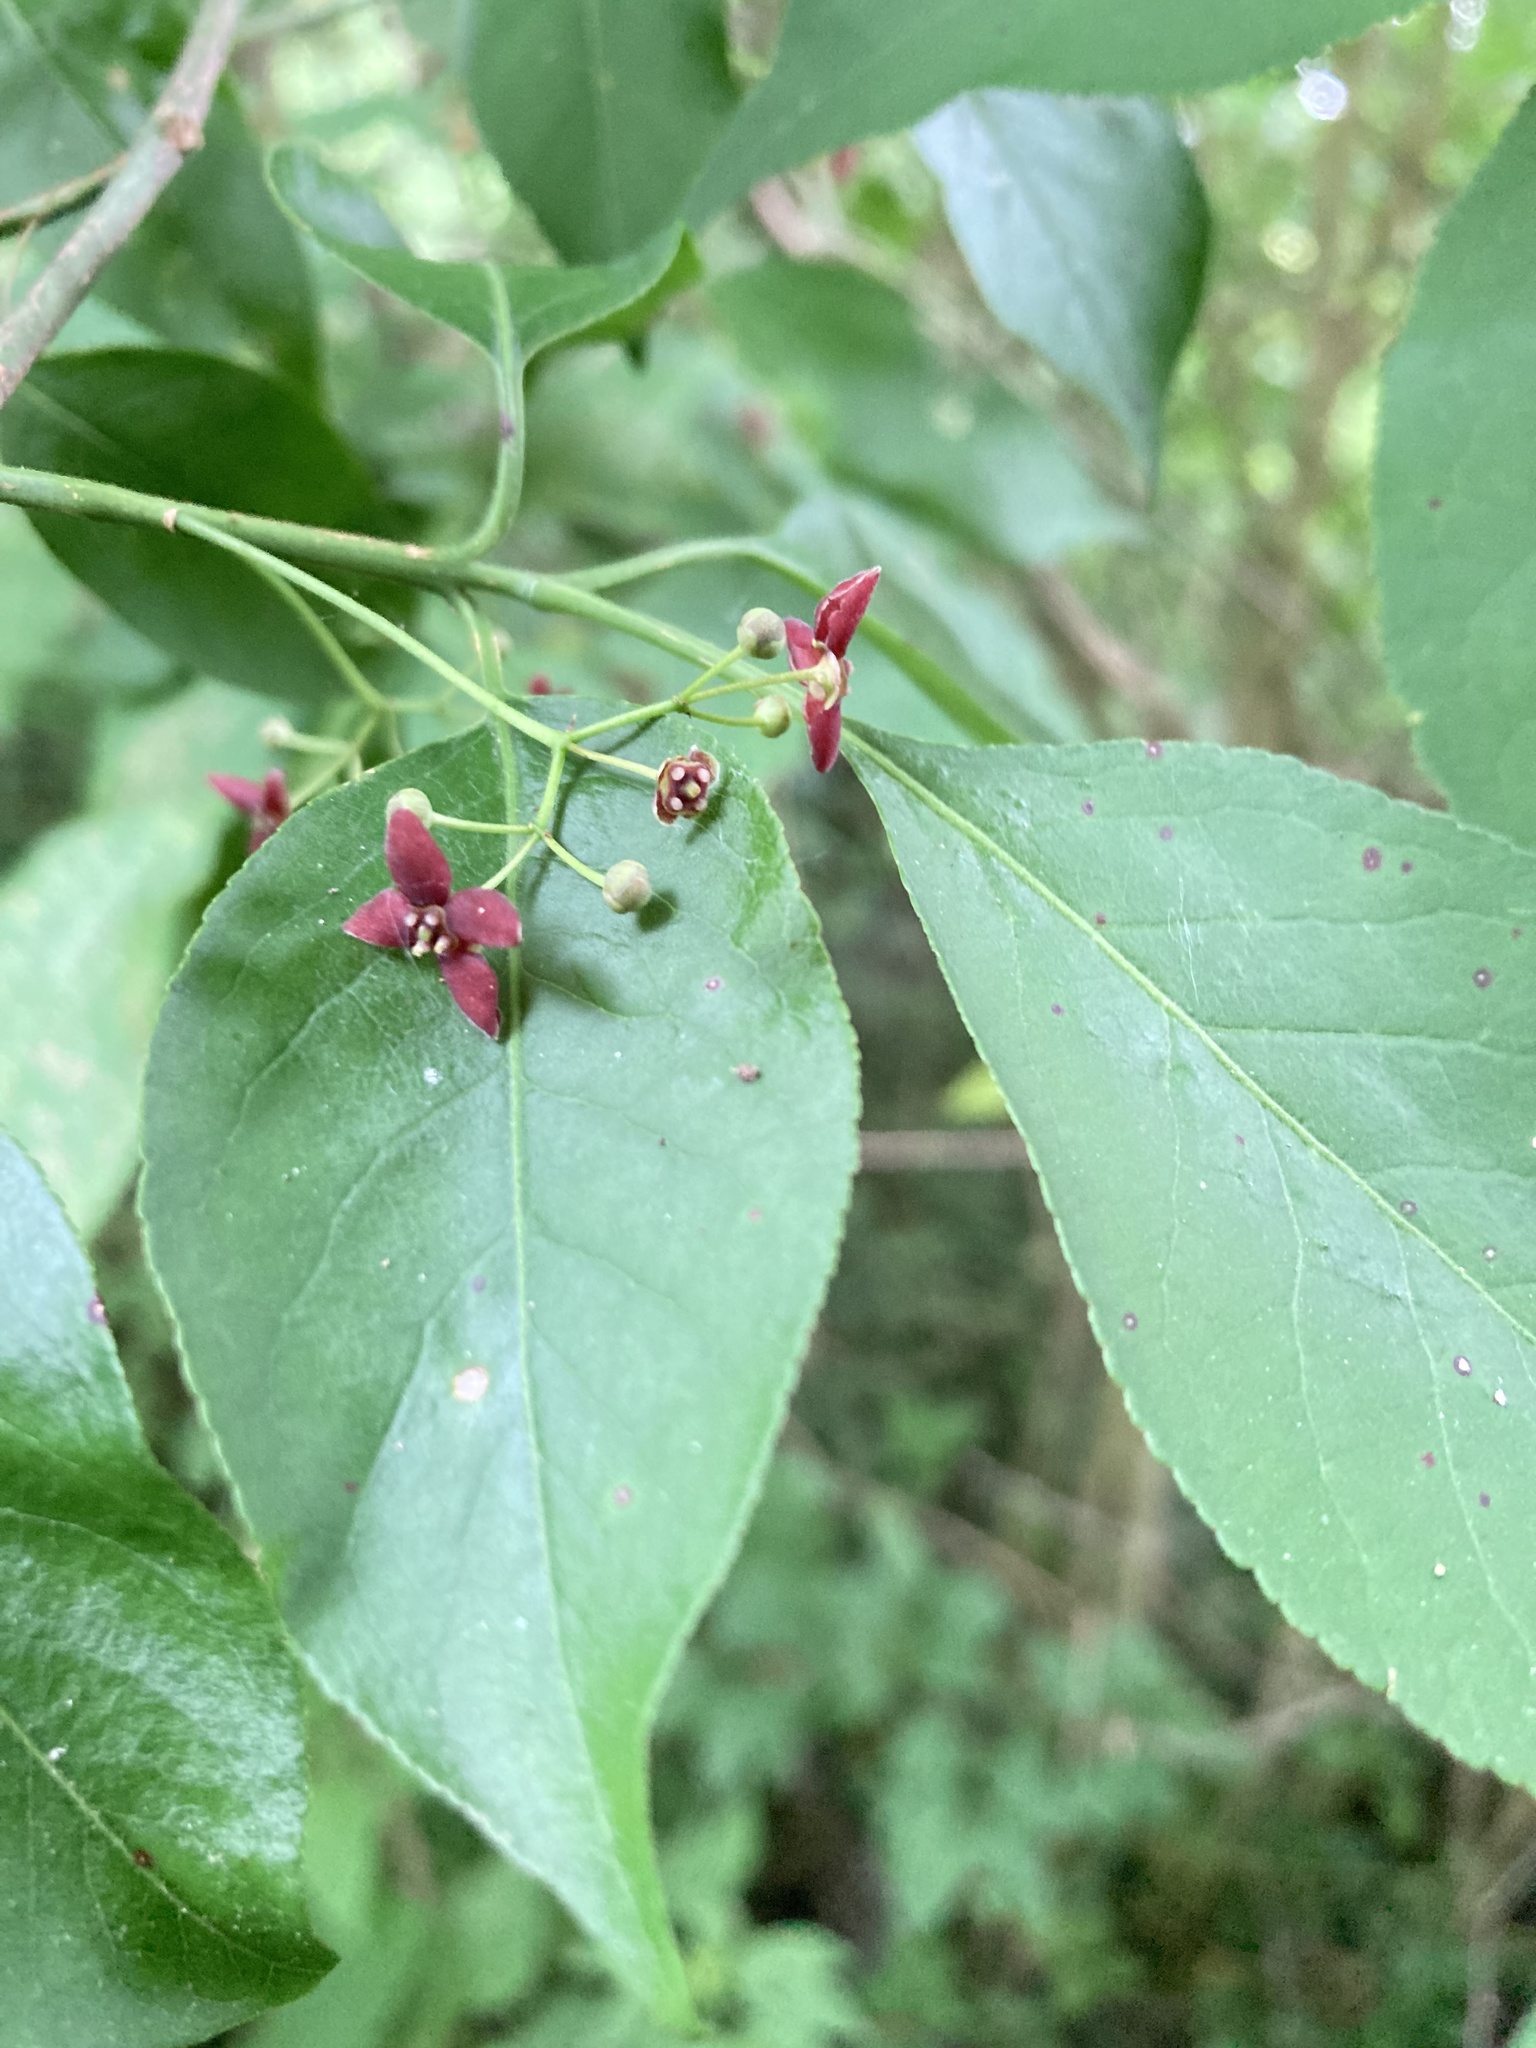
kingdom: Plantae
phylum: Tracheophyta
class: Magnoliopsida
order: Celastrales
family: Celastraceae
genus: Euonymus
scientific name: Euonymus atropurpureus
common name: Eastern wahoo
